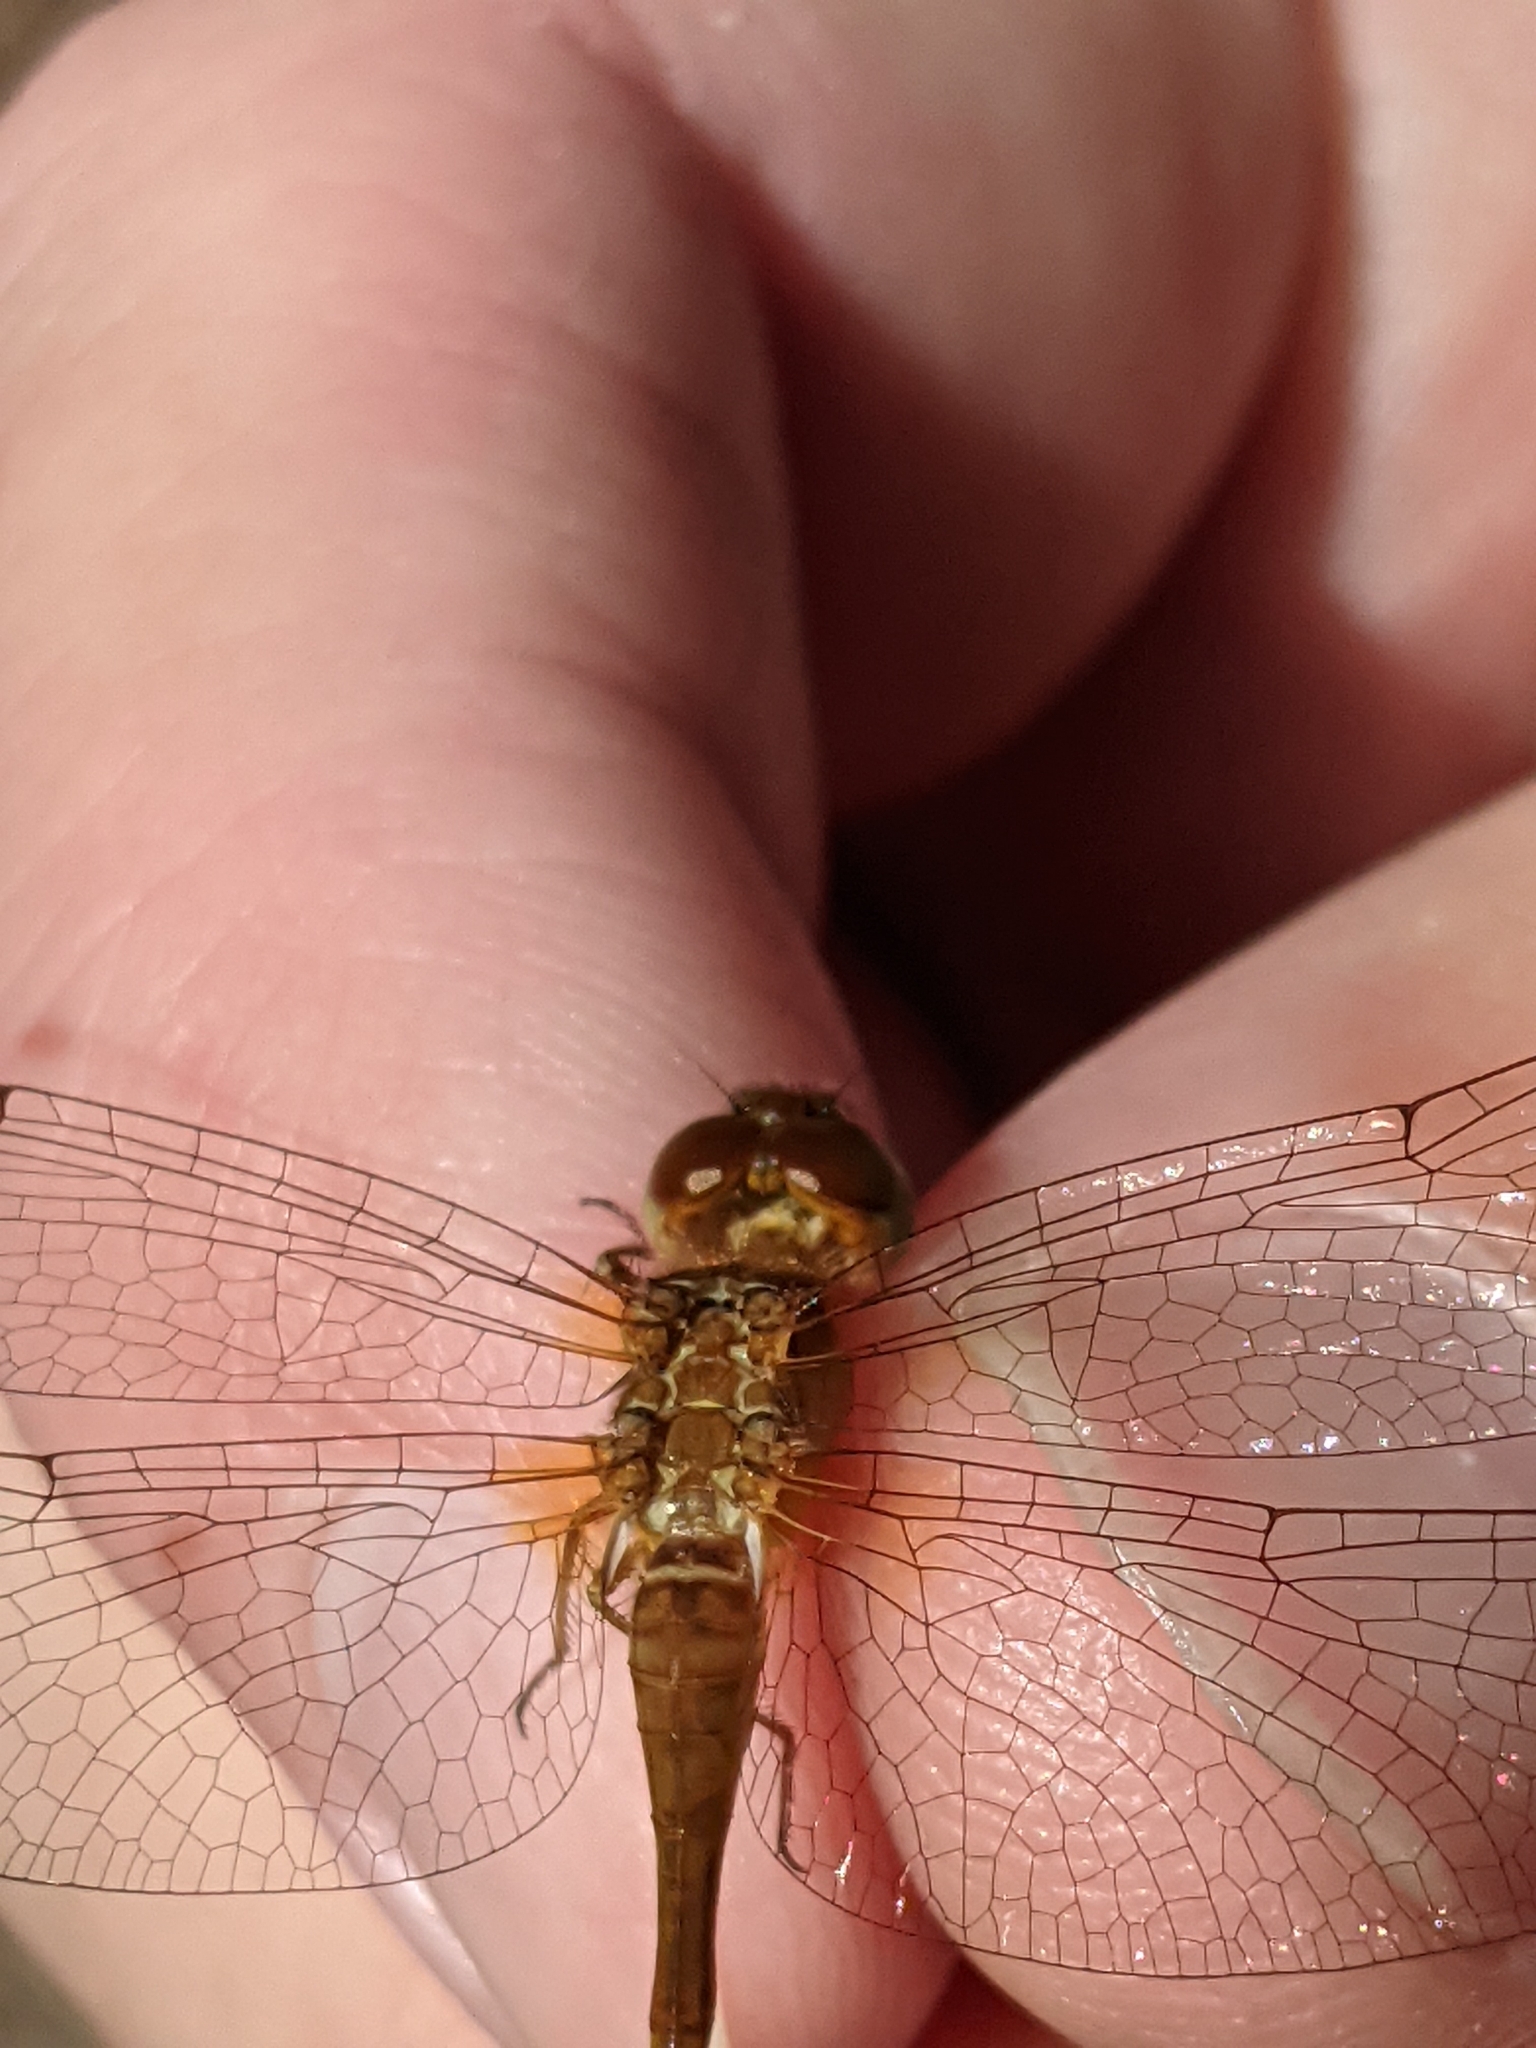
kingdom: Animalia
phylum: Arthropoda
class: Insecta
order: Odonata
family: Libellulidae
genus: Sympetrum
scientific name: Sympetrum vicinum
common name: Autumn meadowhawk
